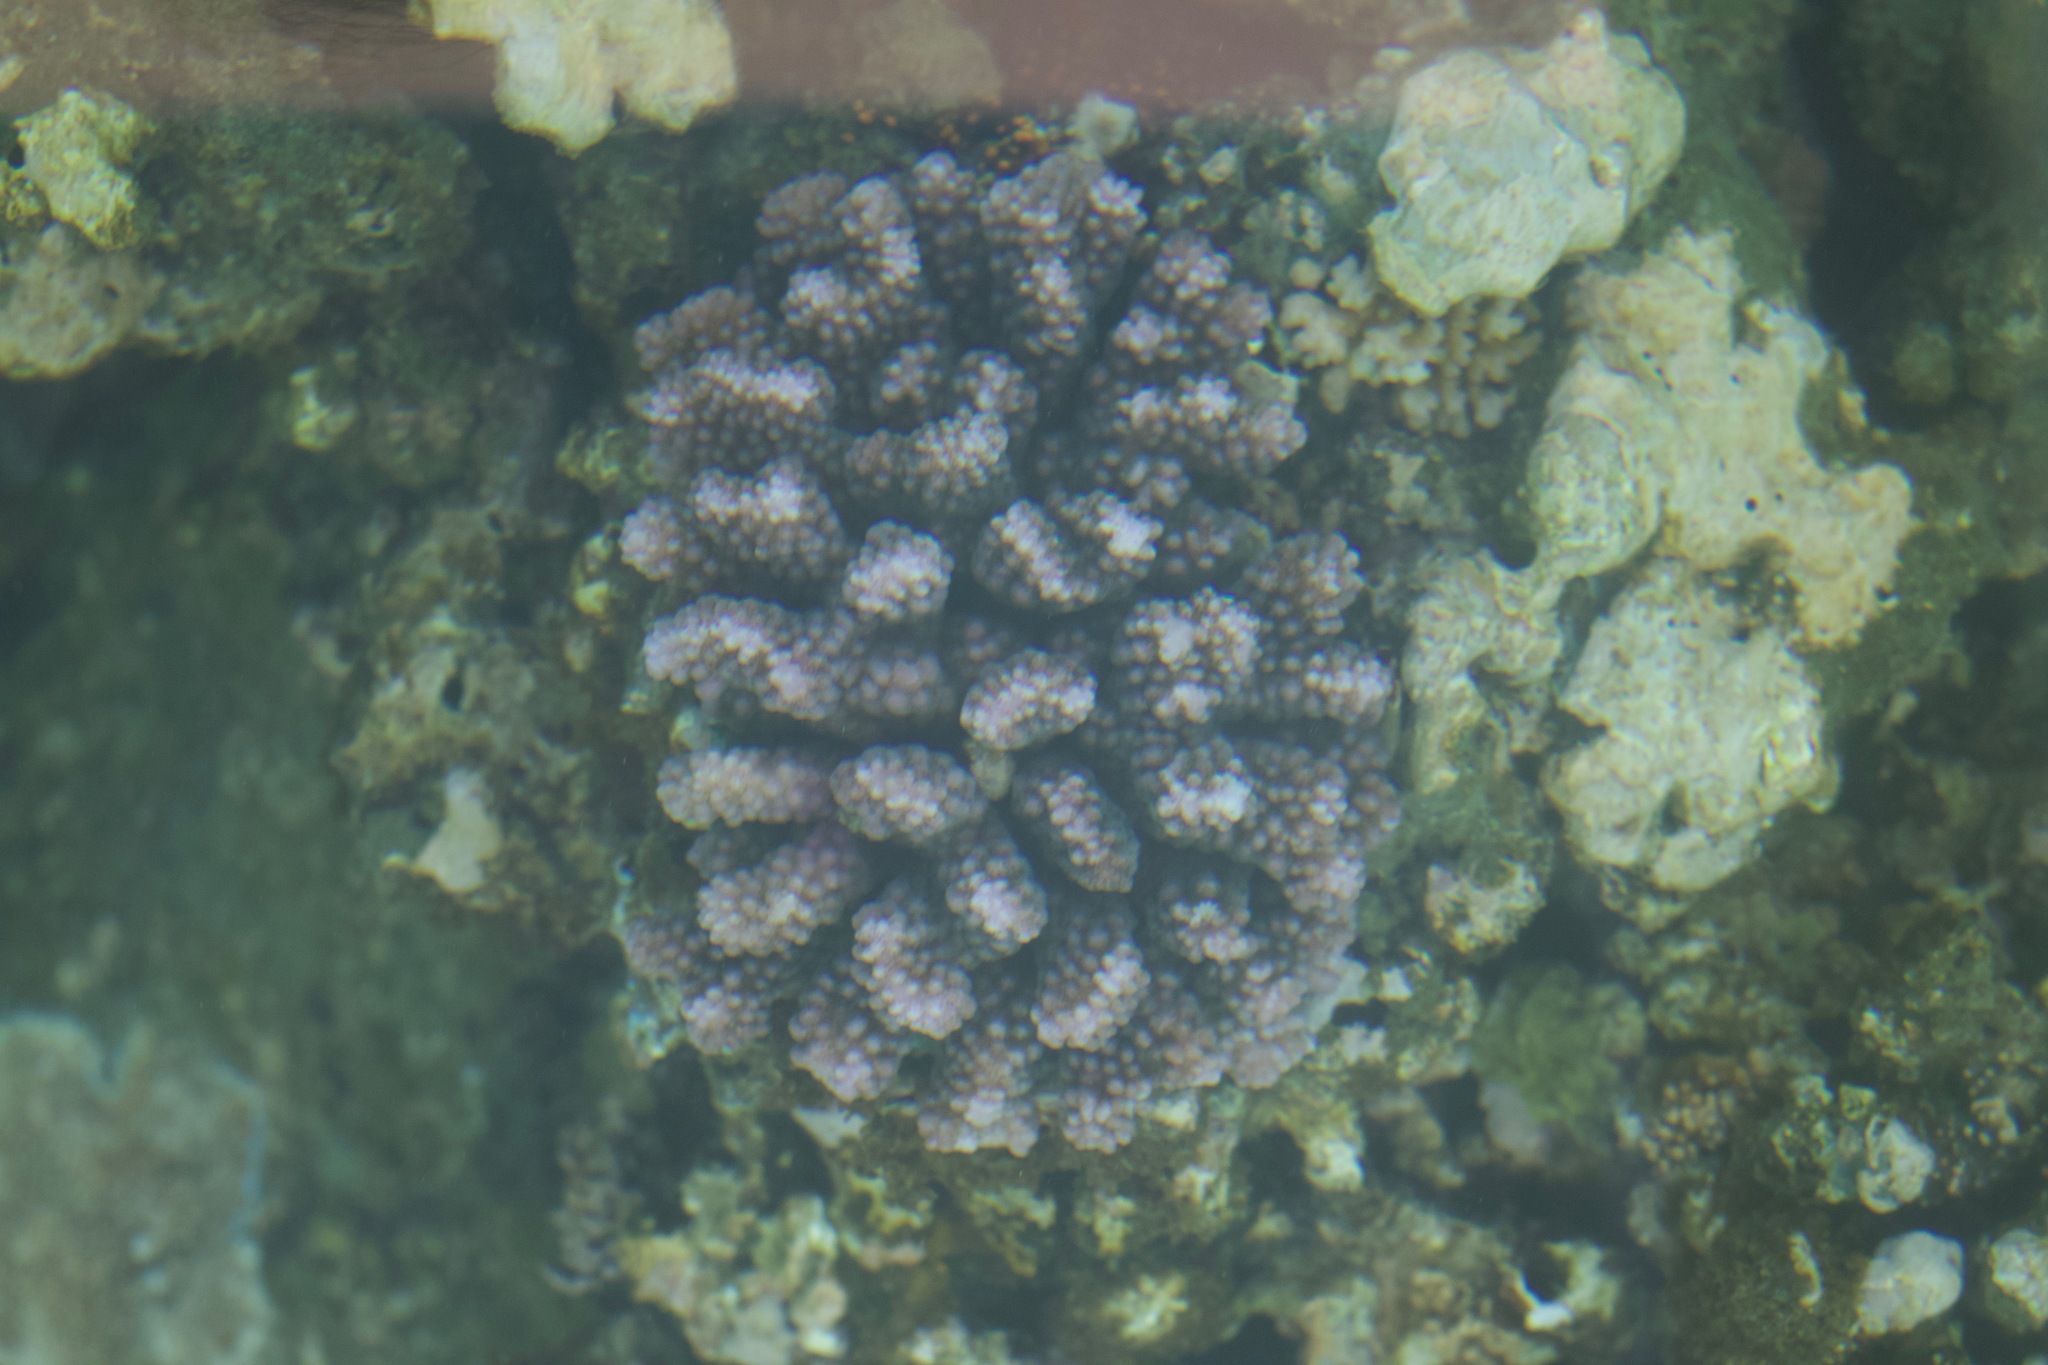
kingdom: Animalia
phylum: Cnidaria
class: Anthozoa
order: Scleractinia
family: Pocilloporidae
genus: Pocillopora
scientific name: Pocillopora verrucosa
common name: Cauliflower coral
